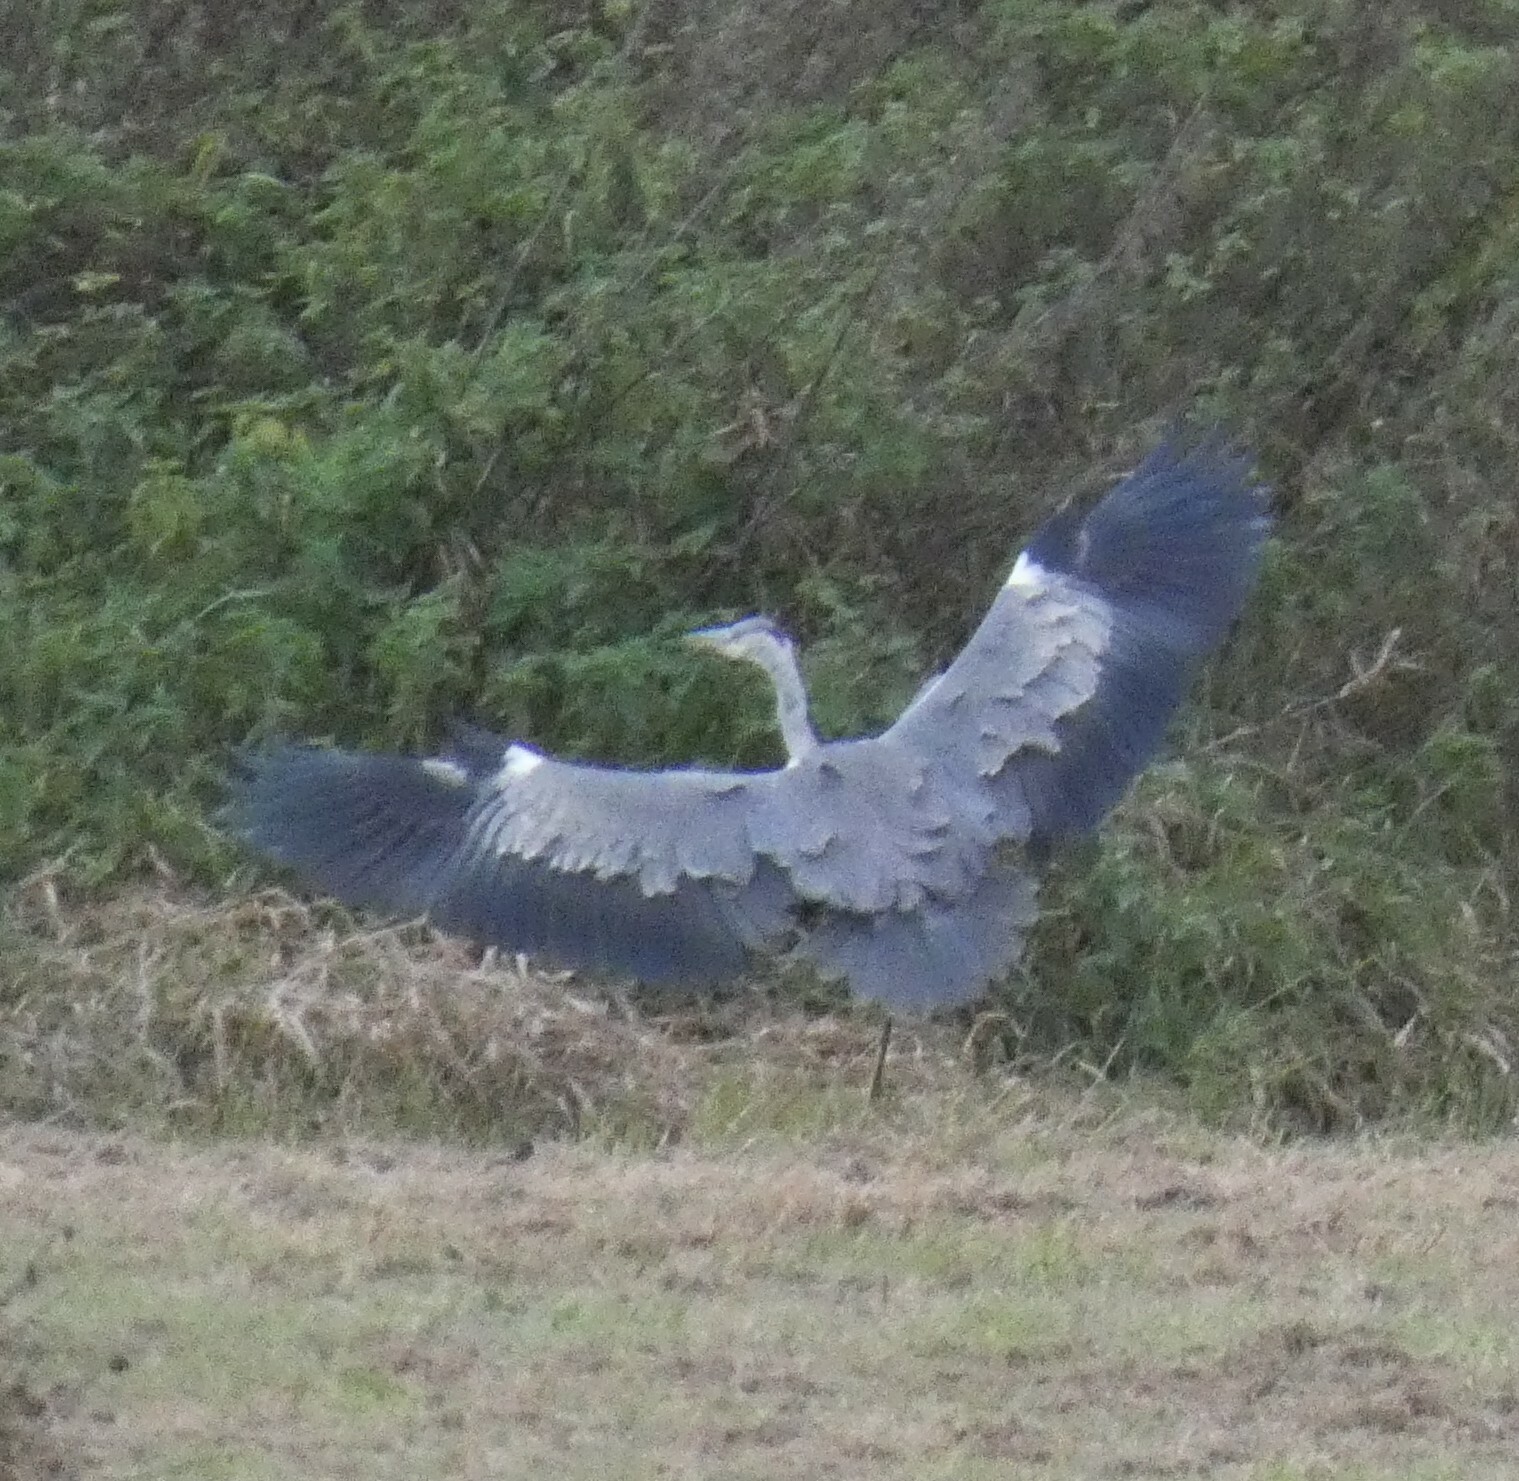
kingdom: Animalia
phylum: Chordata
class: Aves
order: Pelecaniformes
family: Ardeidae
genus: Ardea
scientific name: Ardea cinerea
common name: Grey heron
